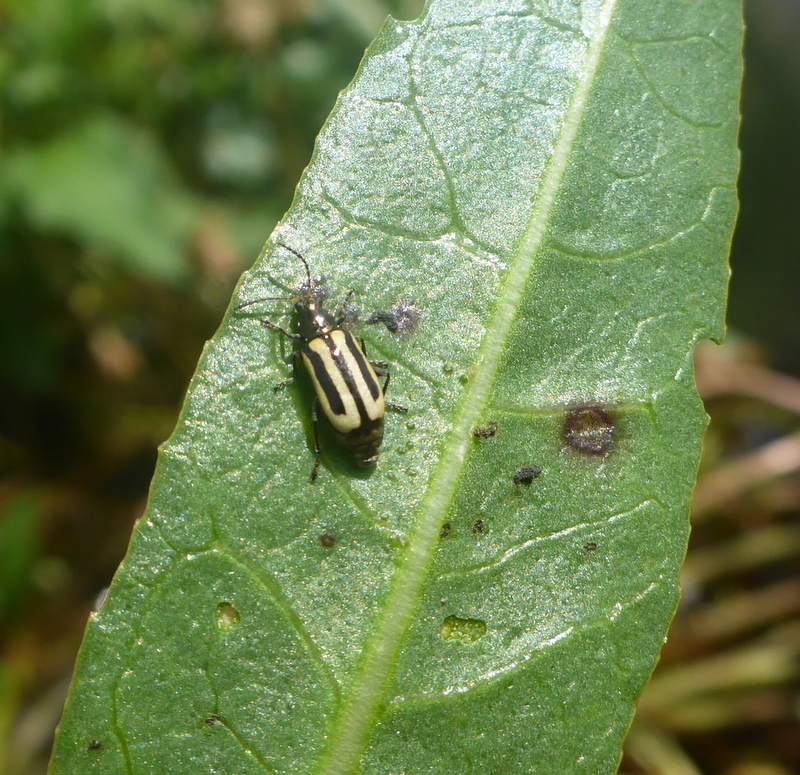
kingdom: Animalia
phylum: Arthropoda
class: Insecta
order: Coleoptera
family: Chrysomelidae
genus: Agasicles
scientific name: Agasicles hygrophila
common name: Alligatorweed flea beetle
